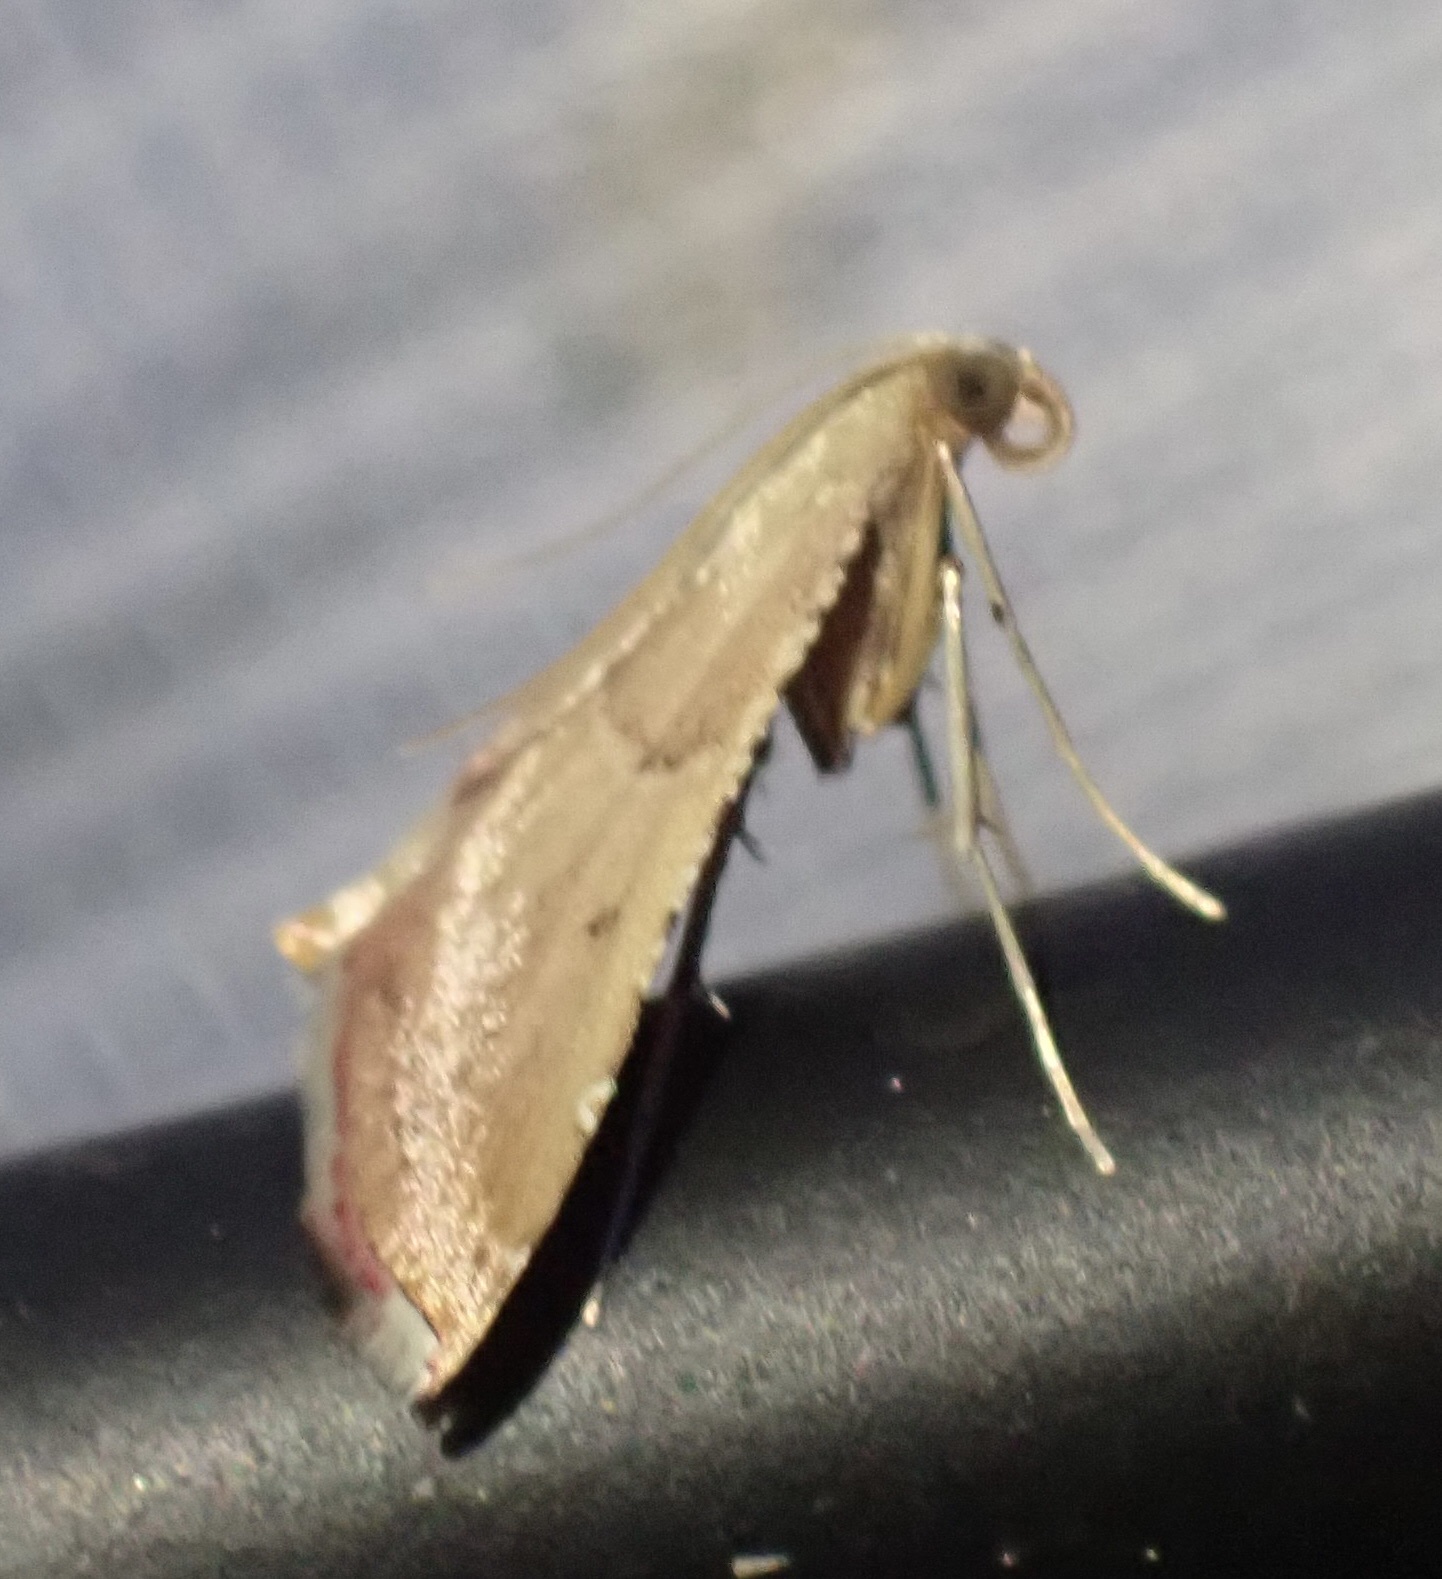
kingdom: Animalia
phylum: Arthropoda
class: Insecta
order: Lepidoptera
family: Pyralidae
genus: Endotricha
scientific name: Endotricha flammealis
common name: Rosy tabby
